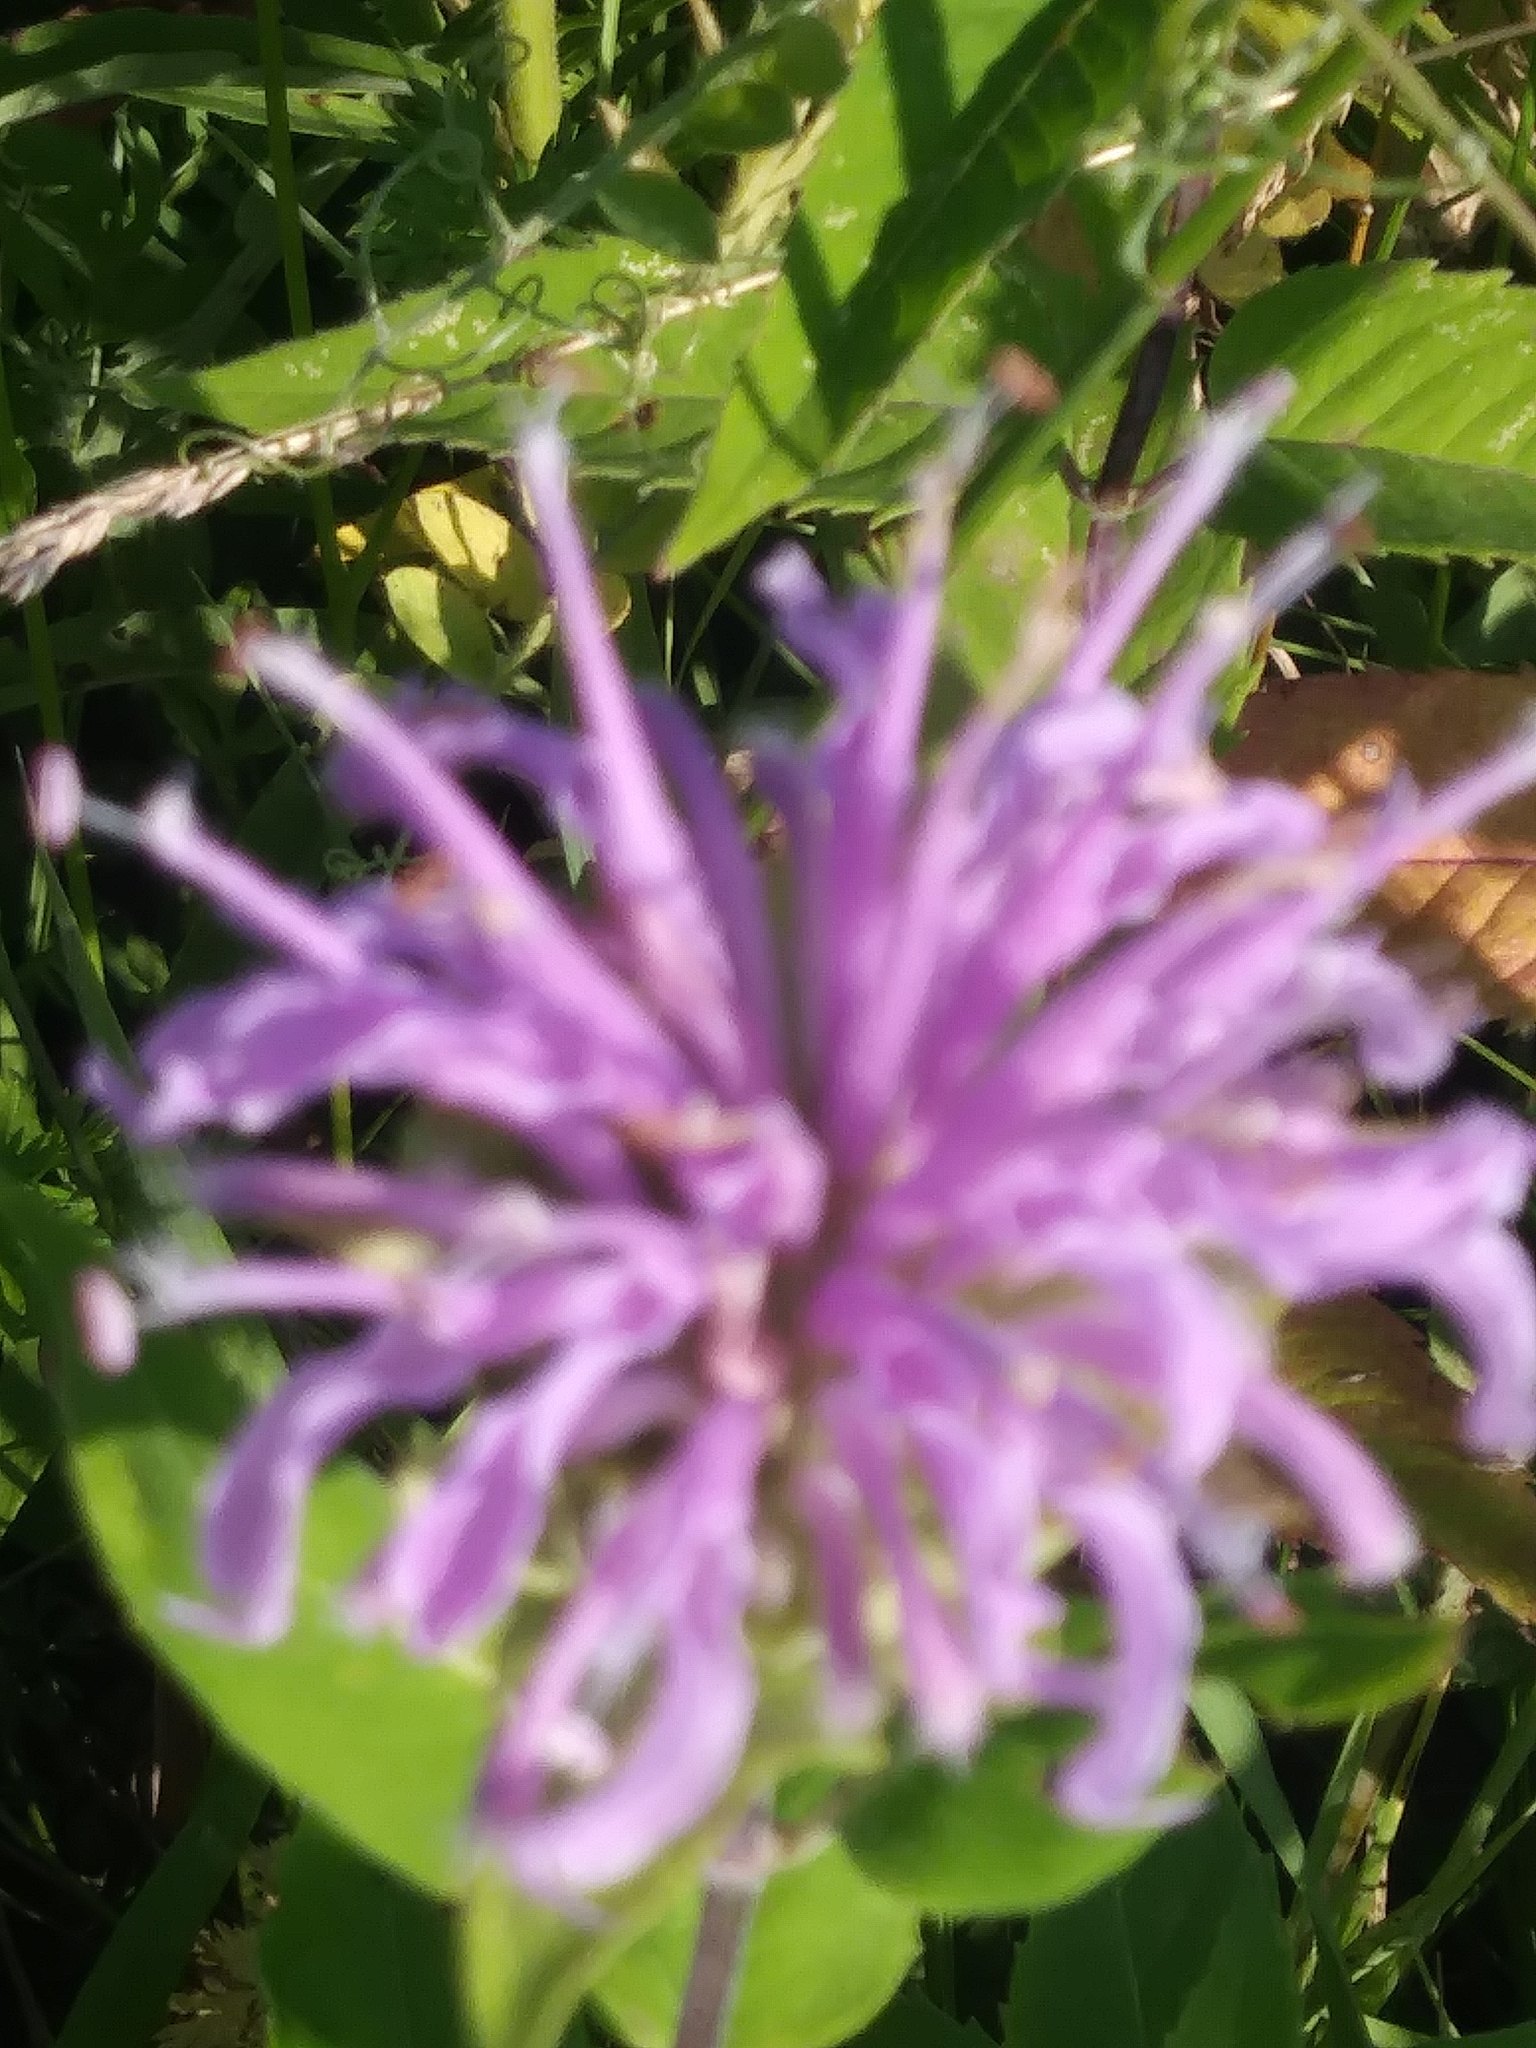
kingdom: Plantae
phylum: Tracheophyta
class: Magnoliopsida
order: Lamiales
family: Lamiaceae
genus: Monarda
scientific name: Monarda fistulosa
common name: Purple beebalm
